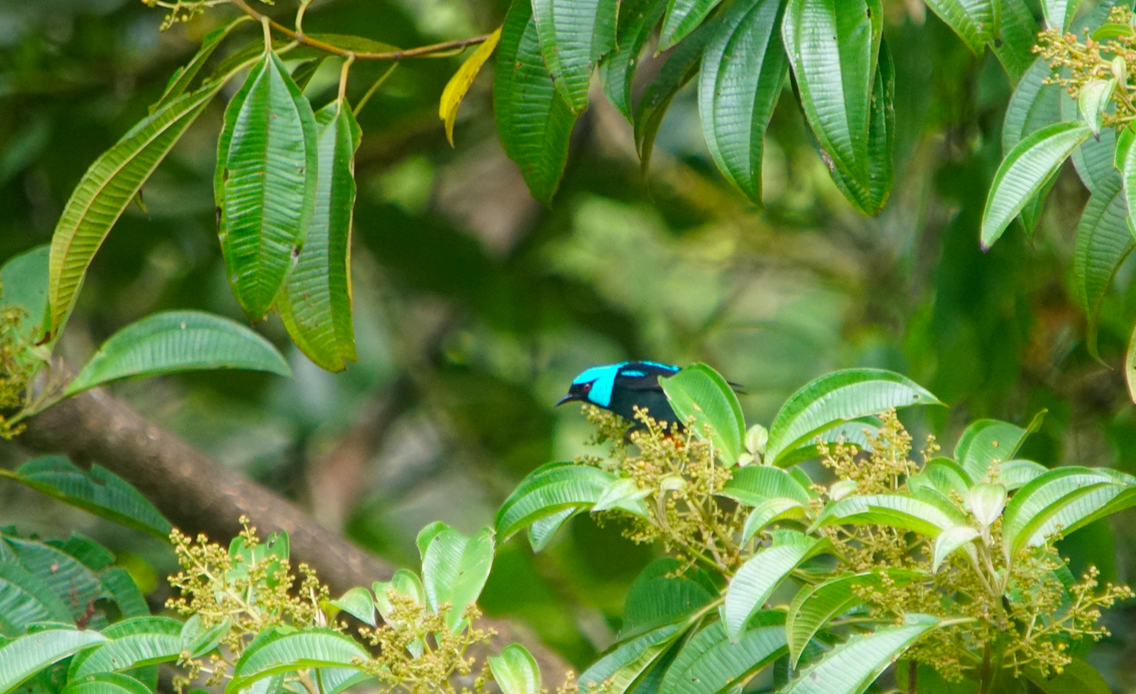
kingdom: Animalia
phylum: Chordata
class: Aves
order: Passeriformes
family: Thraupidae
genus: Dacnis
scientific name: Dacnis venusta
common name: Scarlet-thighed dacnis
